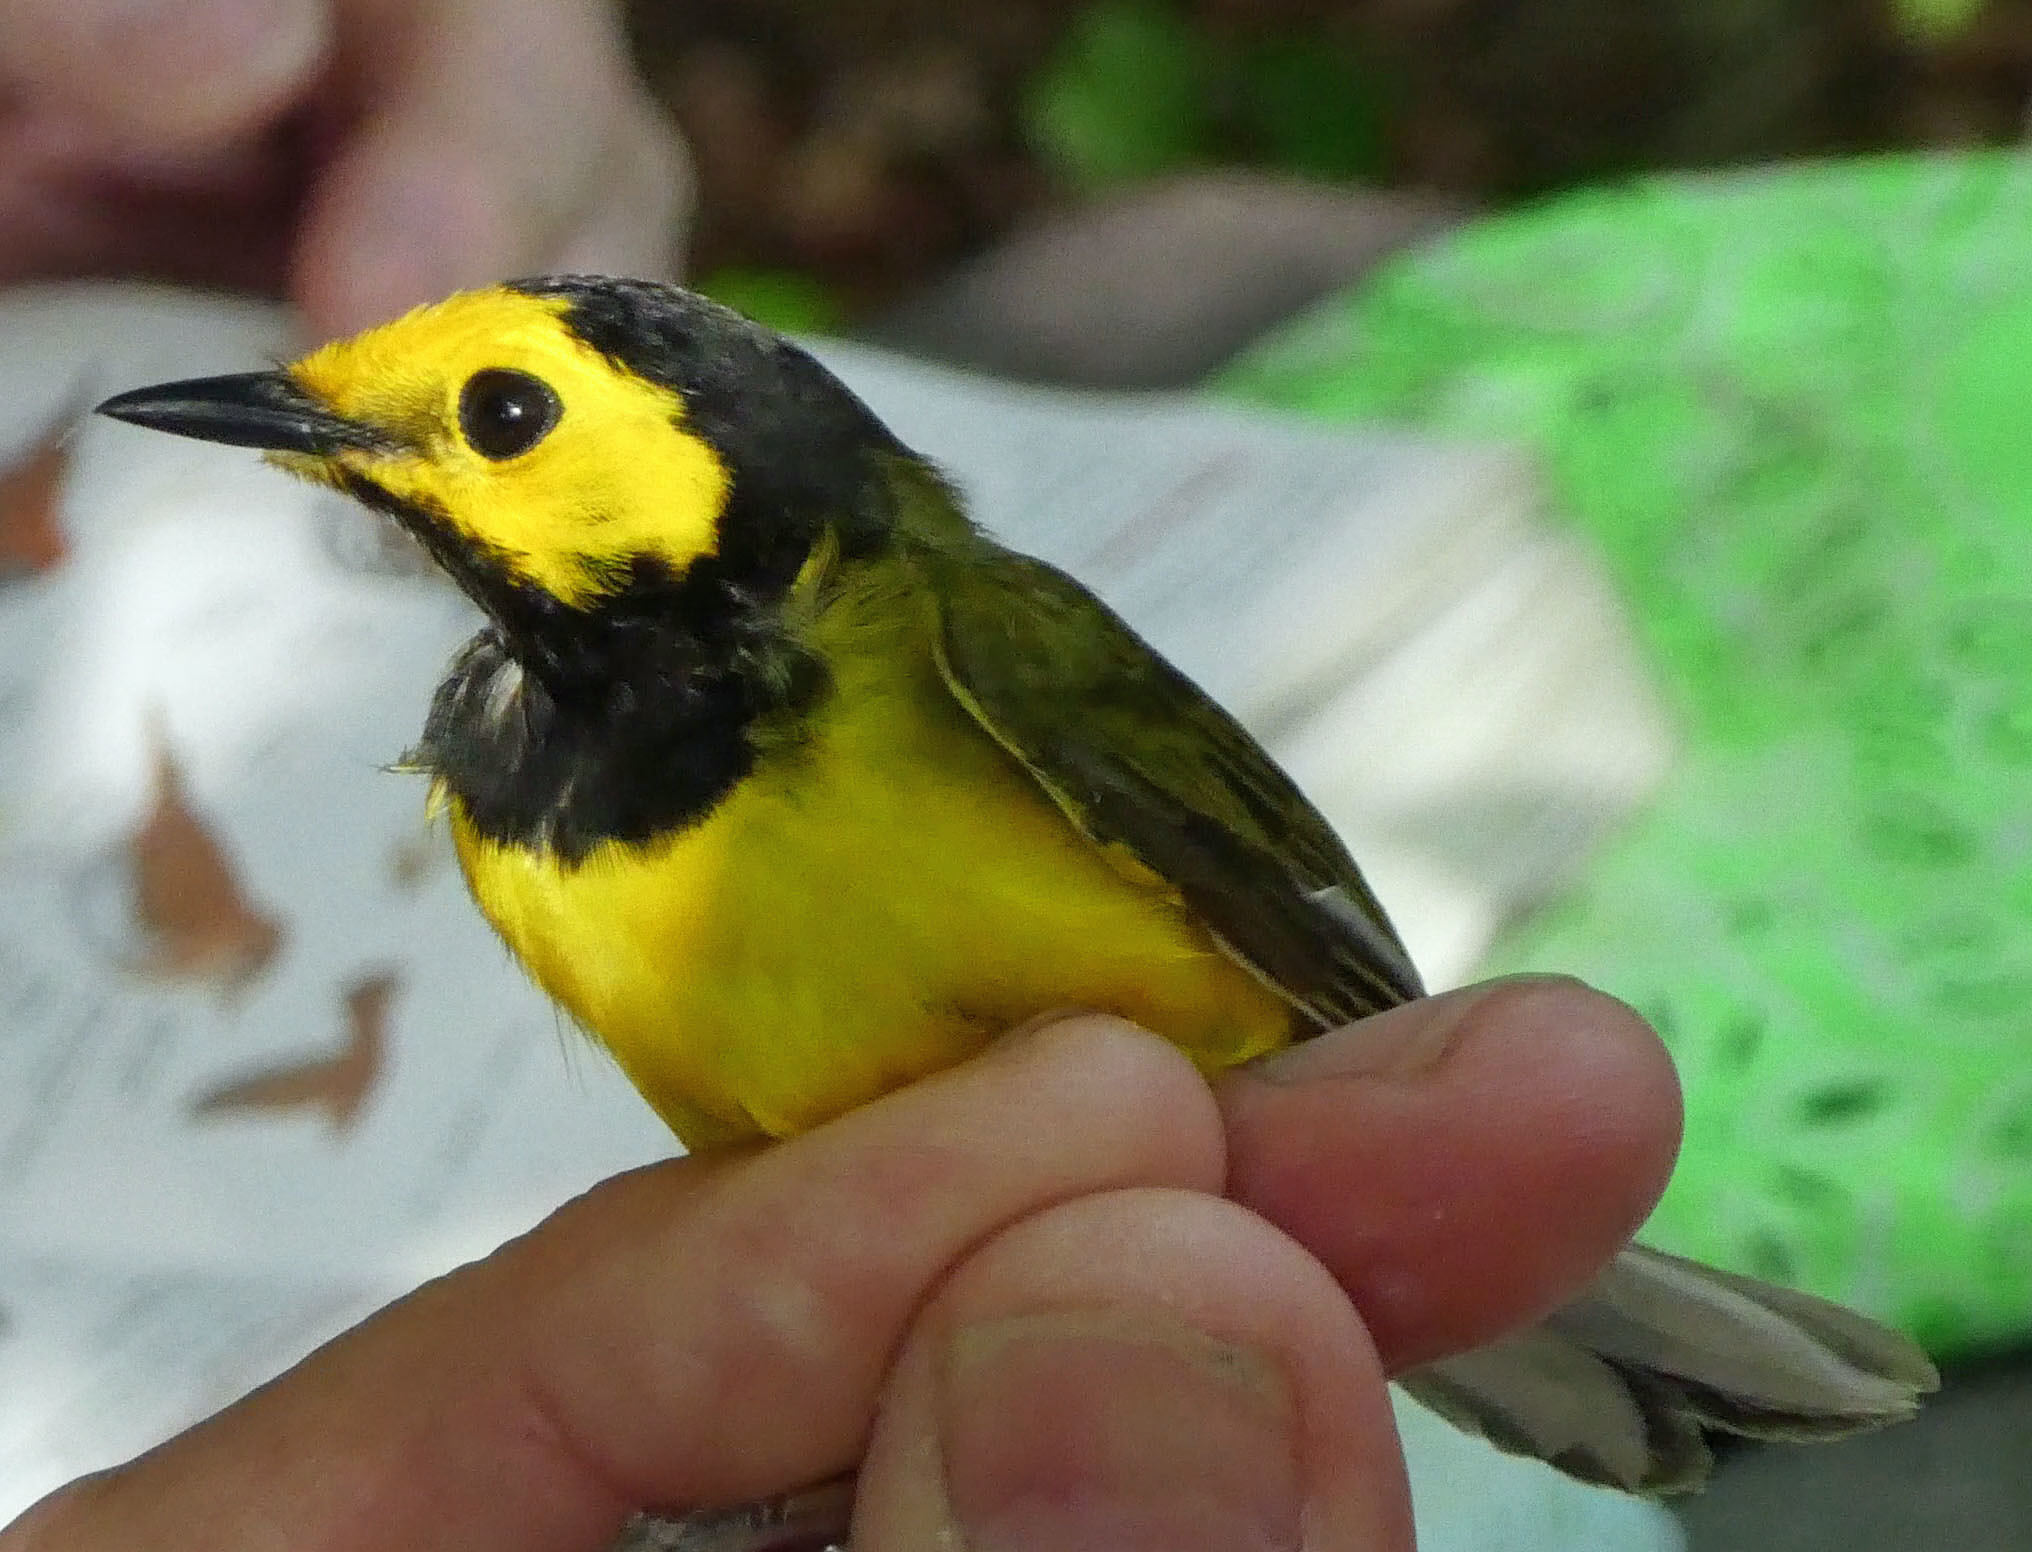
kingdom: Animalia
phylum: Chordata
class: Aves
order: Passeriformes
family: Parulidae
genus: Setophaga
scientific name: Setophaga citrina
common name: Hooded warbler
